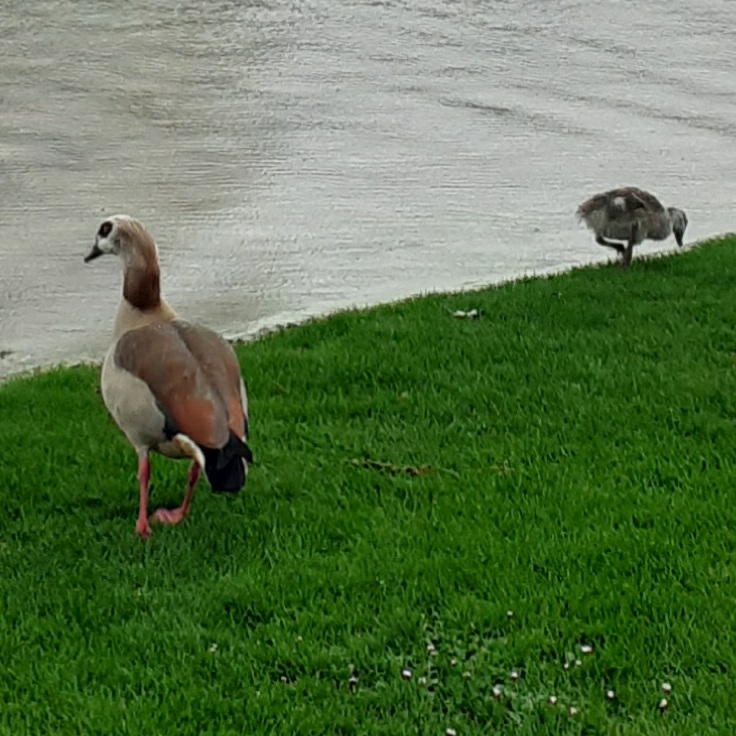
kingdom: Animalia
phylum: Chordata
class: Aves
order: Anseriformes
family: Anatidae
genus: Alopochen
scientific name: Alopochen aegyptiaca
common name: Egyptian goose
